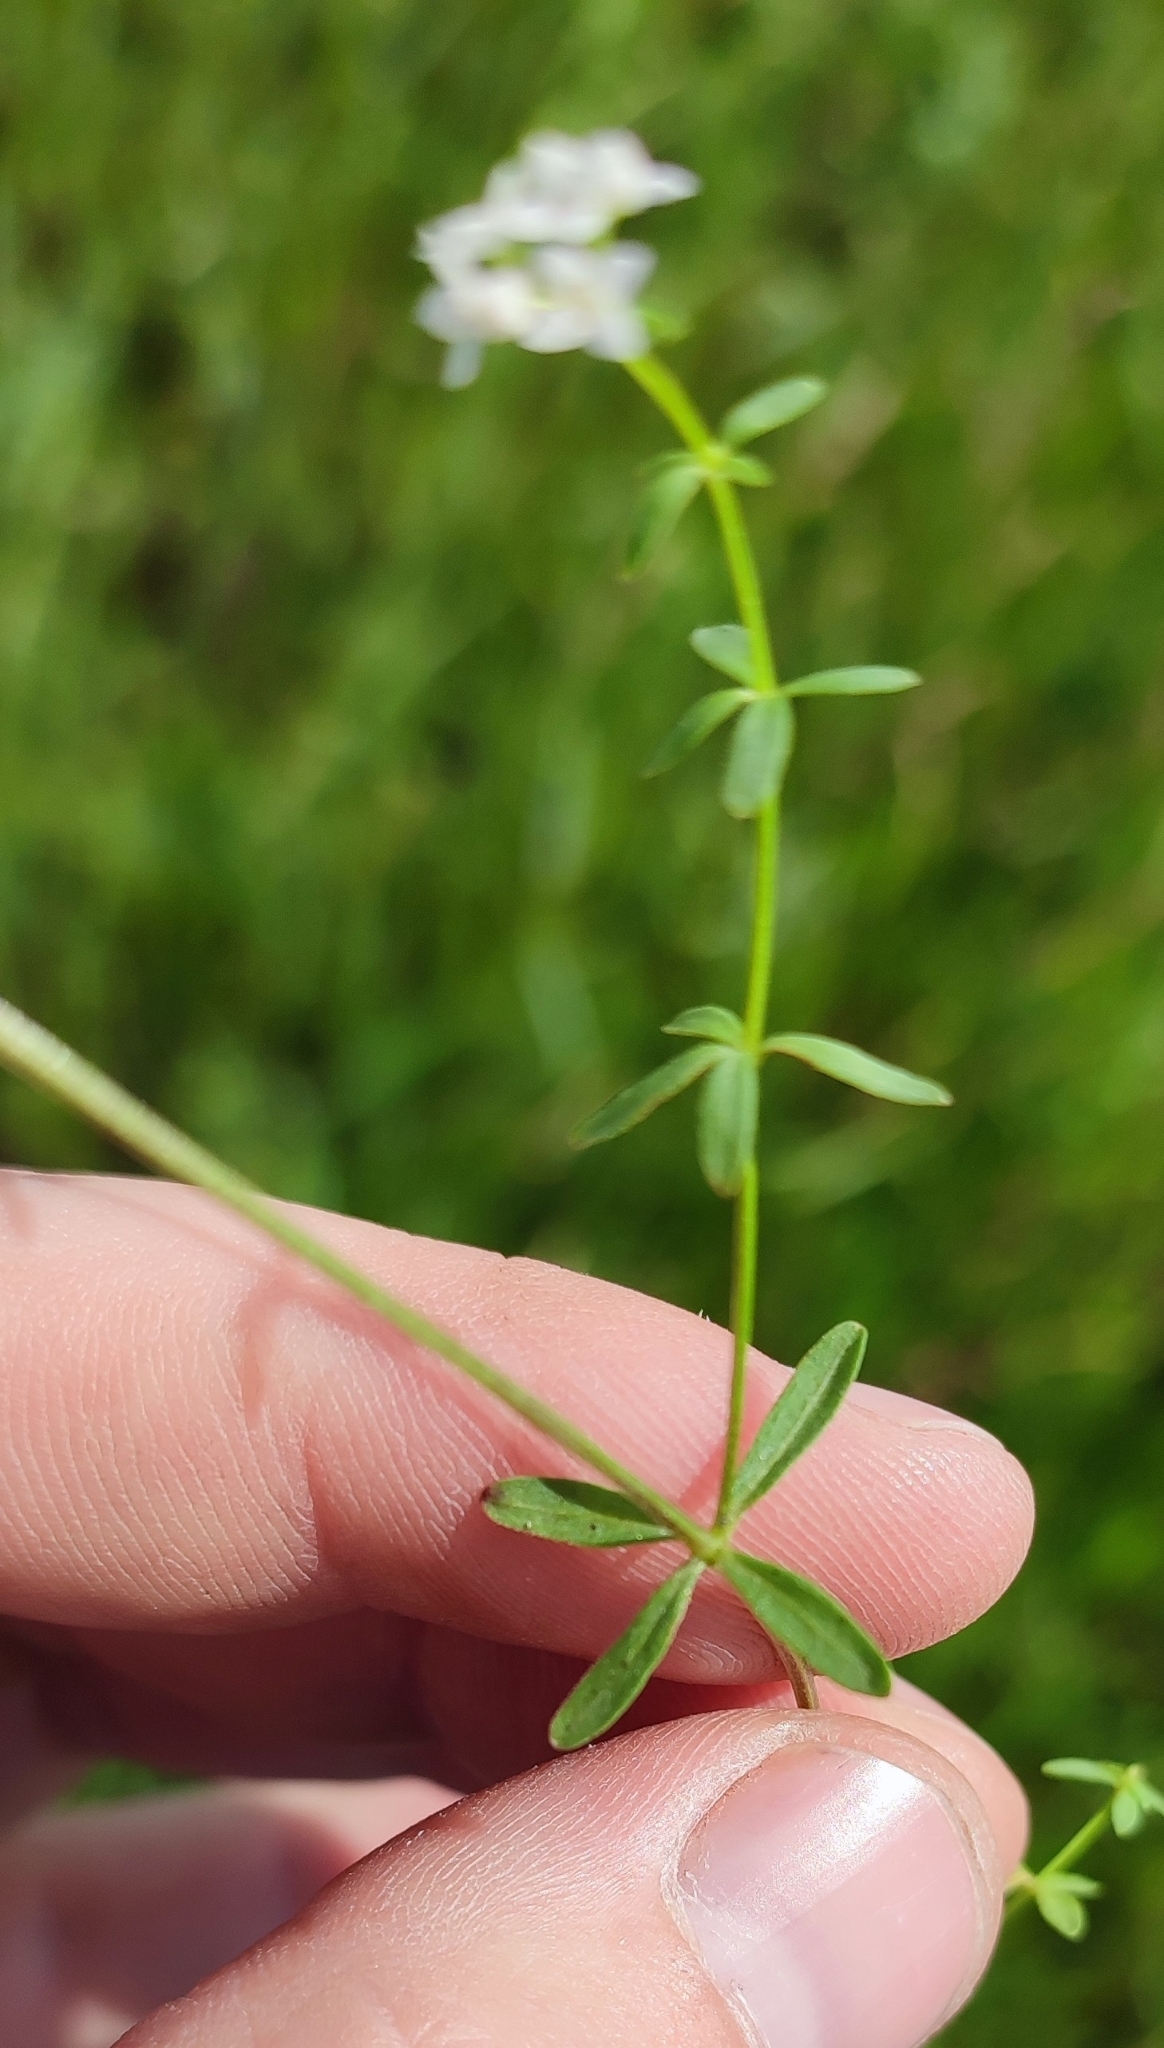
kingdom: Plantae
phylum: Tracheophyta
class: Magnoliopsida
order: Gentianales
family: Rubiaceae
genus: Galium
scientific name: Galium palustre
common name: Common marsh-bedstraw
